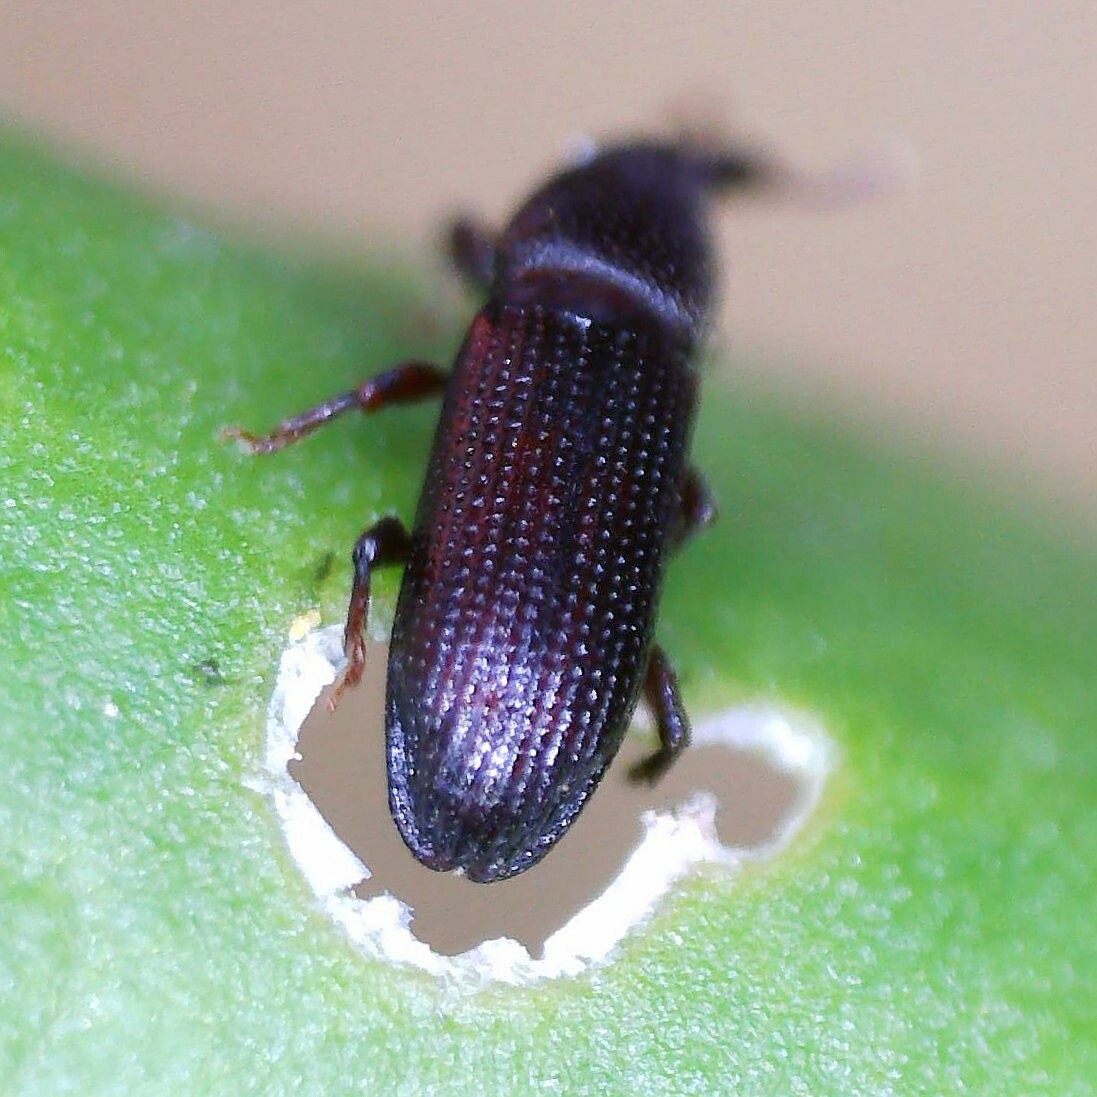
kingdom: Animalia
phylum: Arthropoda
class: Insecta
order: Coleoptera
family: Curculionidae
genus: Pentarthrum
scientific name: Pentarthrum confine
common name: Weevil
